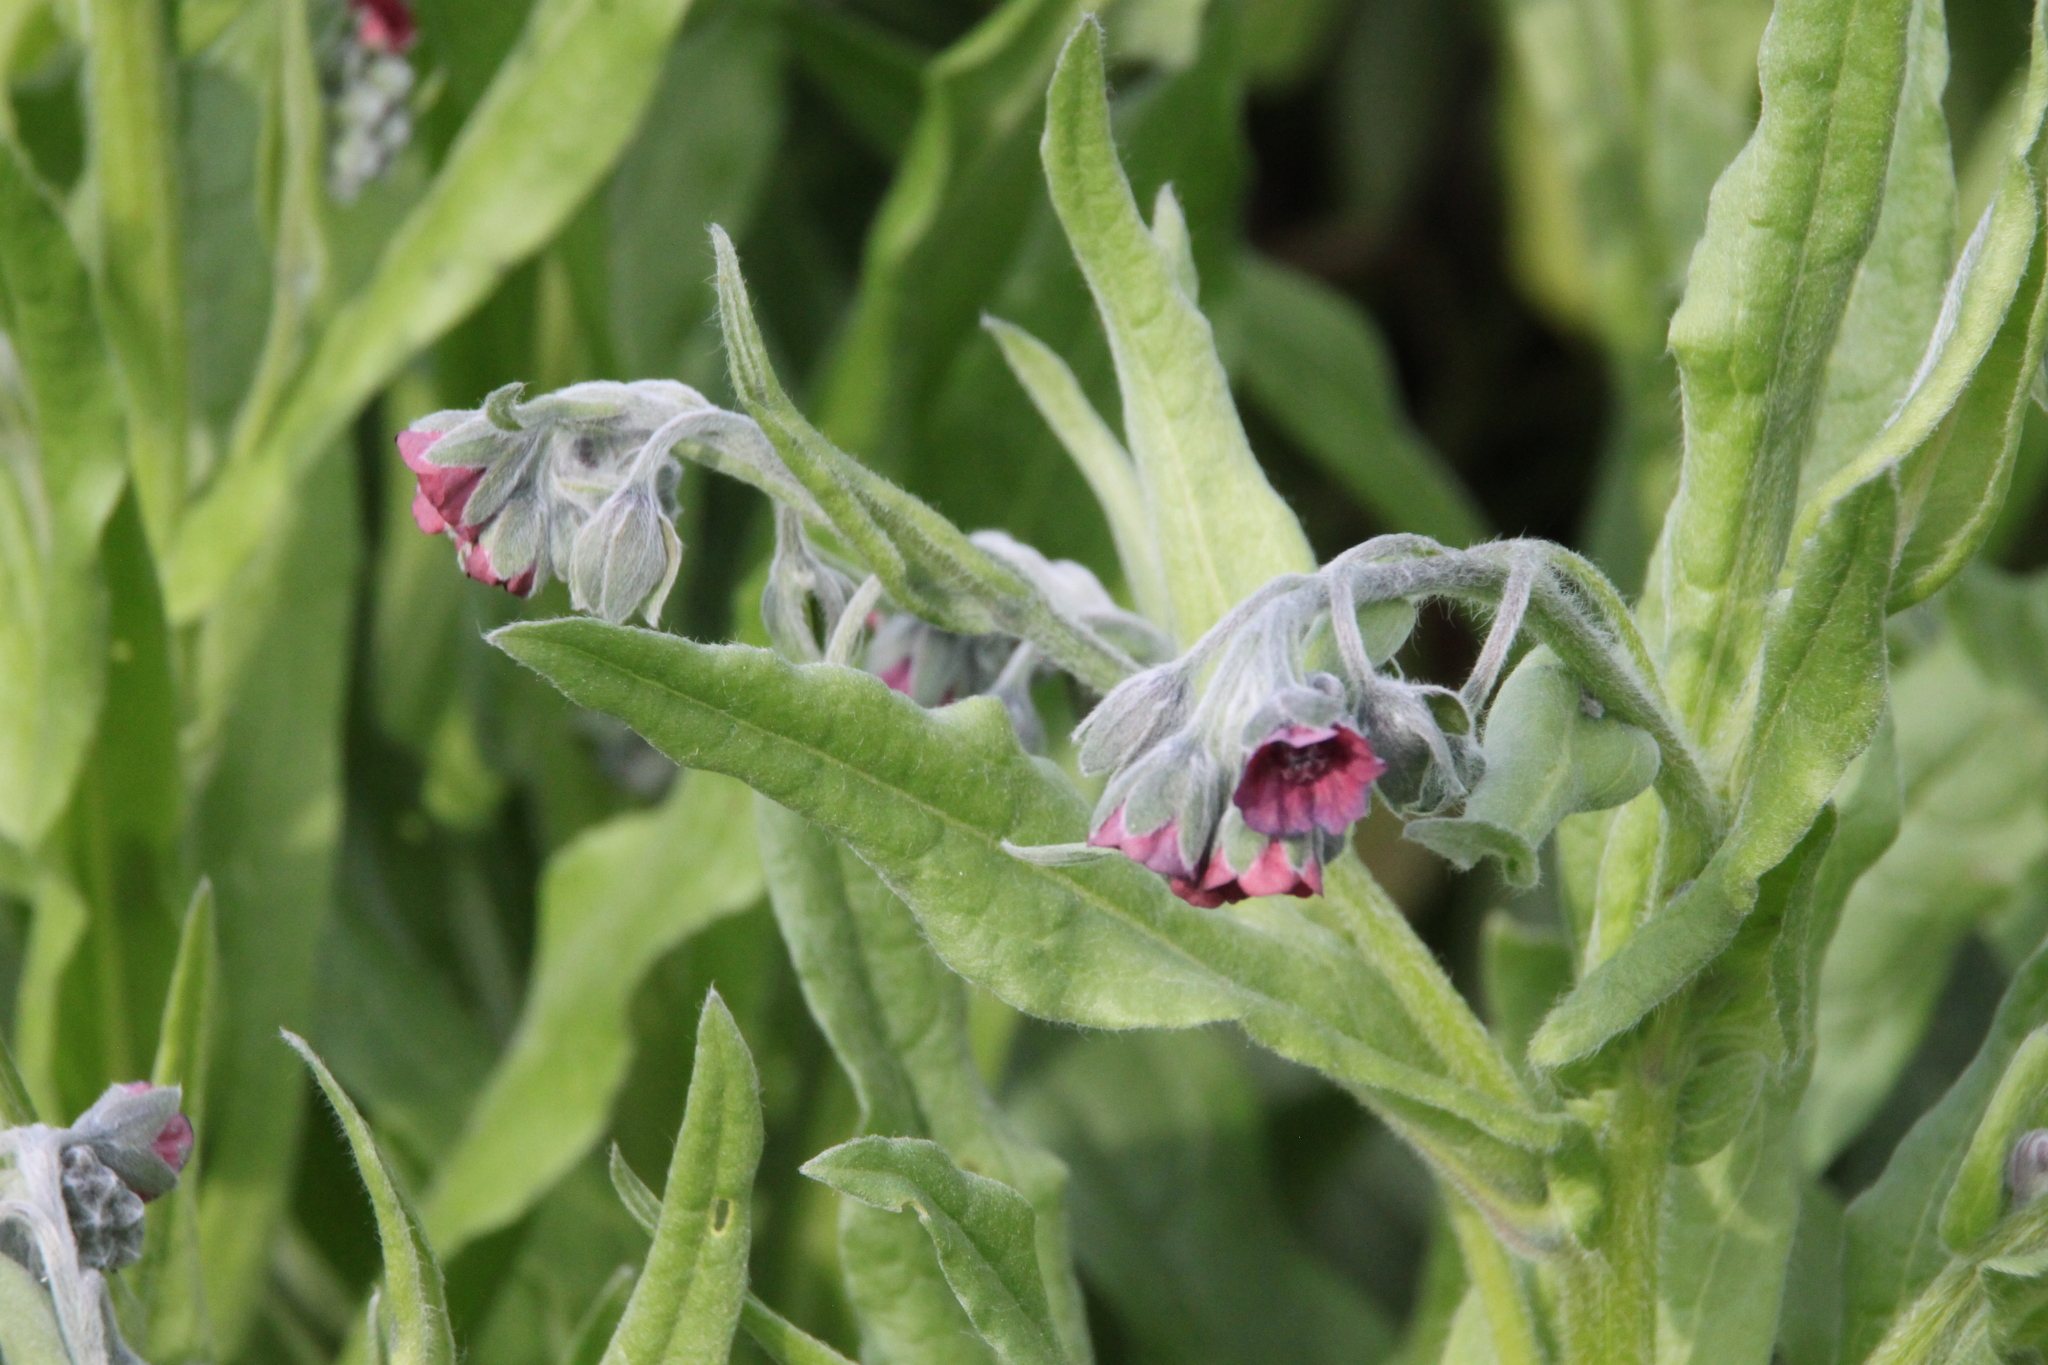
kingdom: Plantae
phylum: Tracheophyta
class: Magnoliopsida
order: Boraginales
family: Boraginaceae
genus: Cynoglossum
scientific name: Cynoglossum officinale
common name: Hound's-tongue
